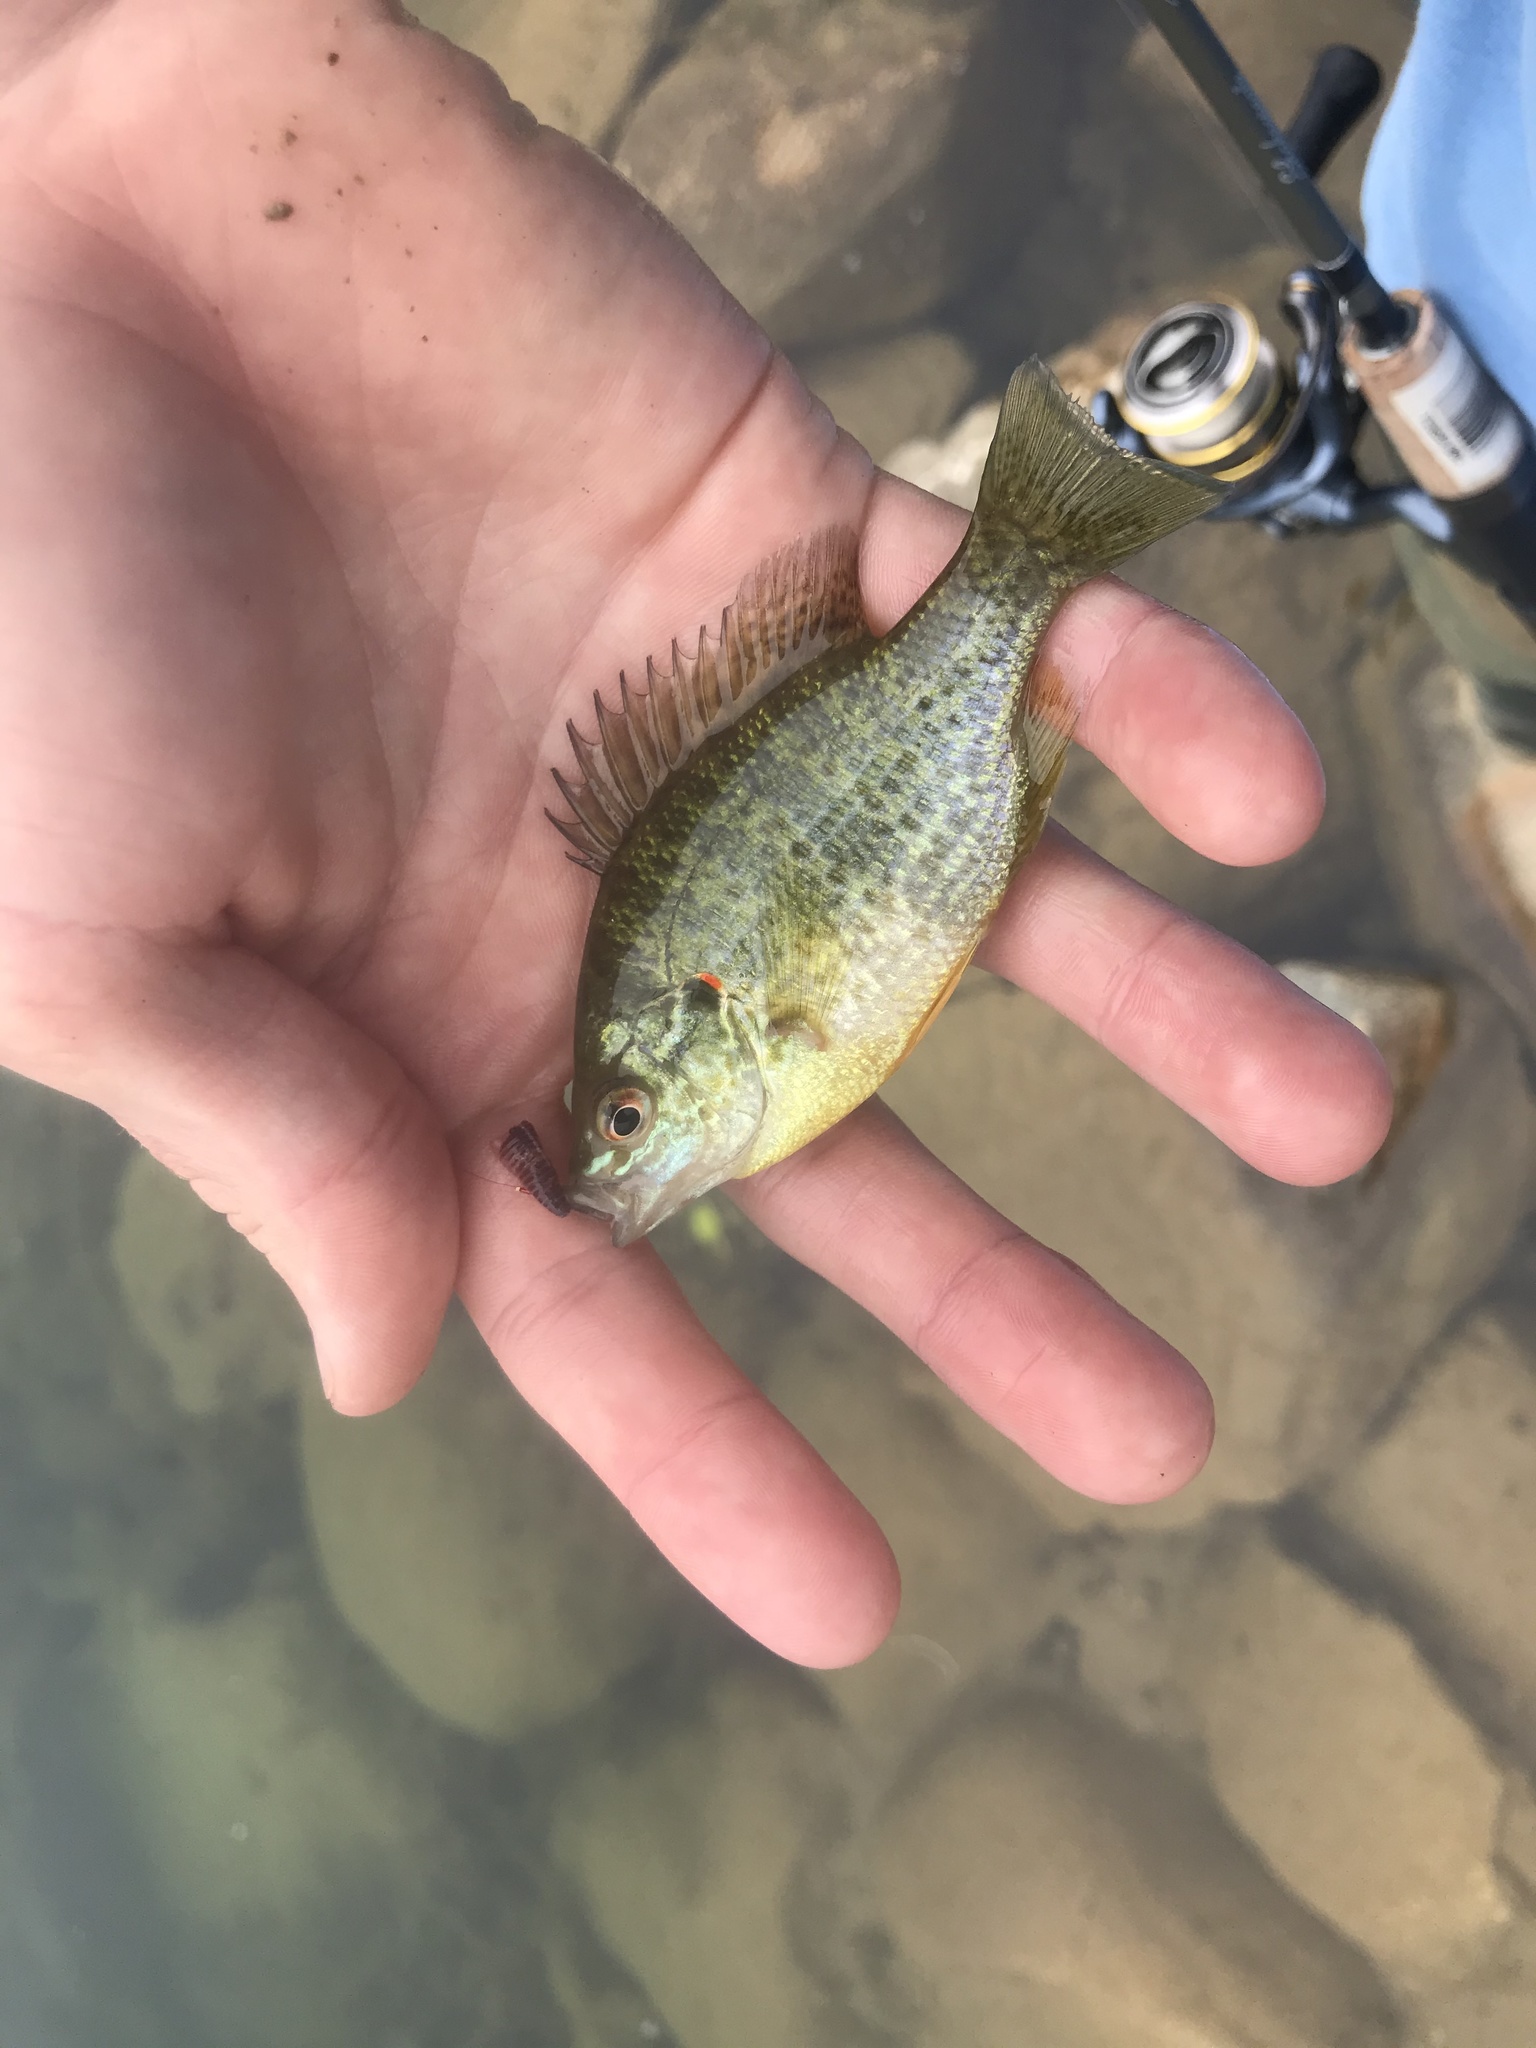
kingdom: Animalia
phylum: Chordata
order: Perciformes
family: Centrarchidae
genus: Lepomis
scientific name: Lepomis gibbosus
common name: Pumpkinseed
